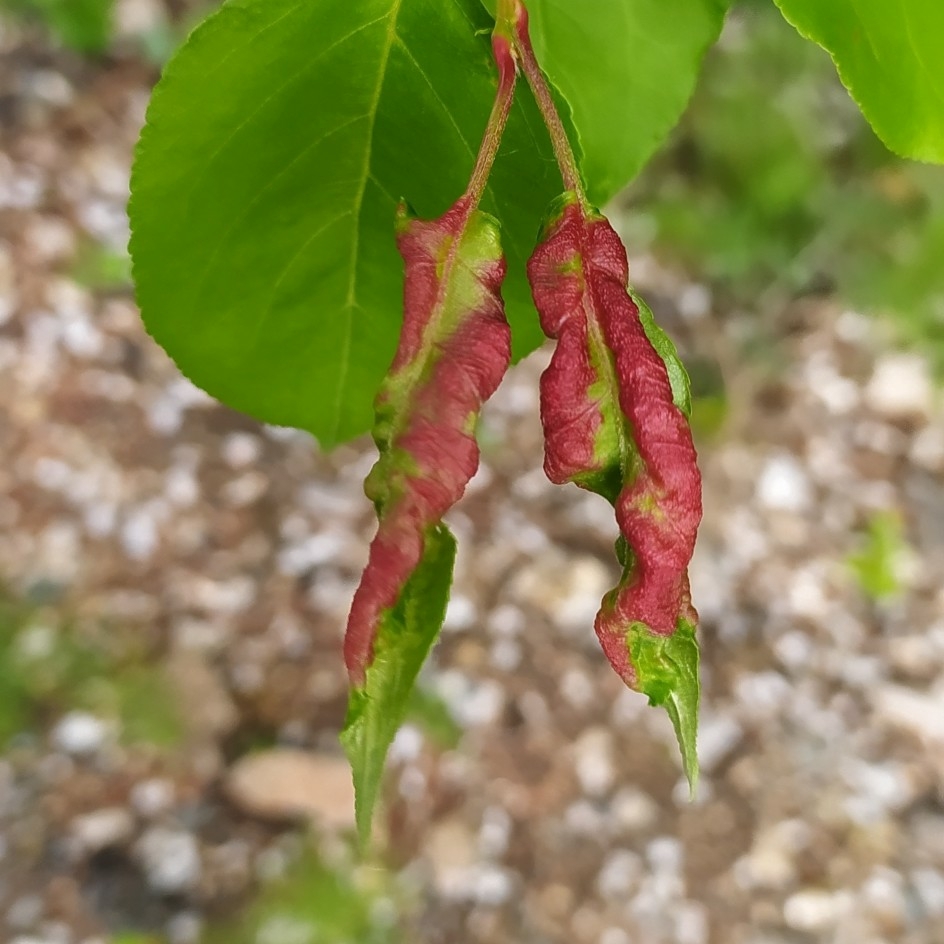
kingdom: Animalia
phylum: Arthropoda
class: Insecta
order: Hemiptera
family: Aphididae
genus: Dysaphis
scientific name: Dysaphis devecta
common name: Aphid
